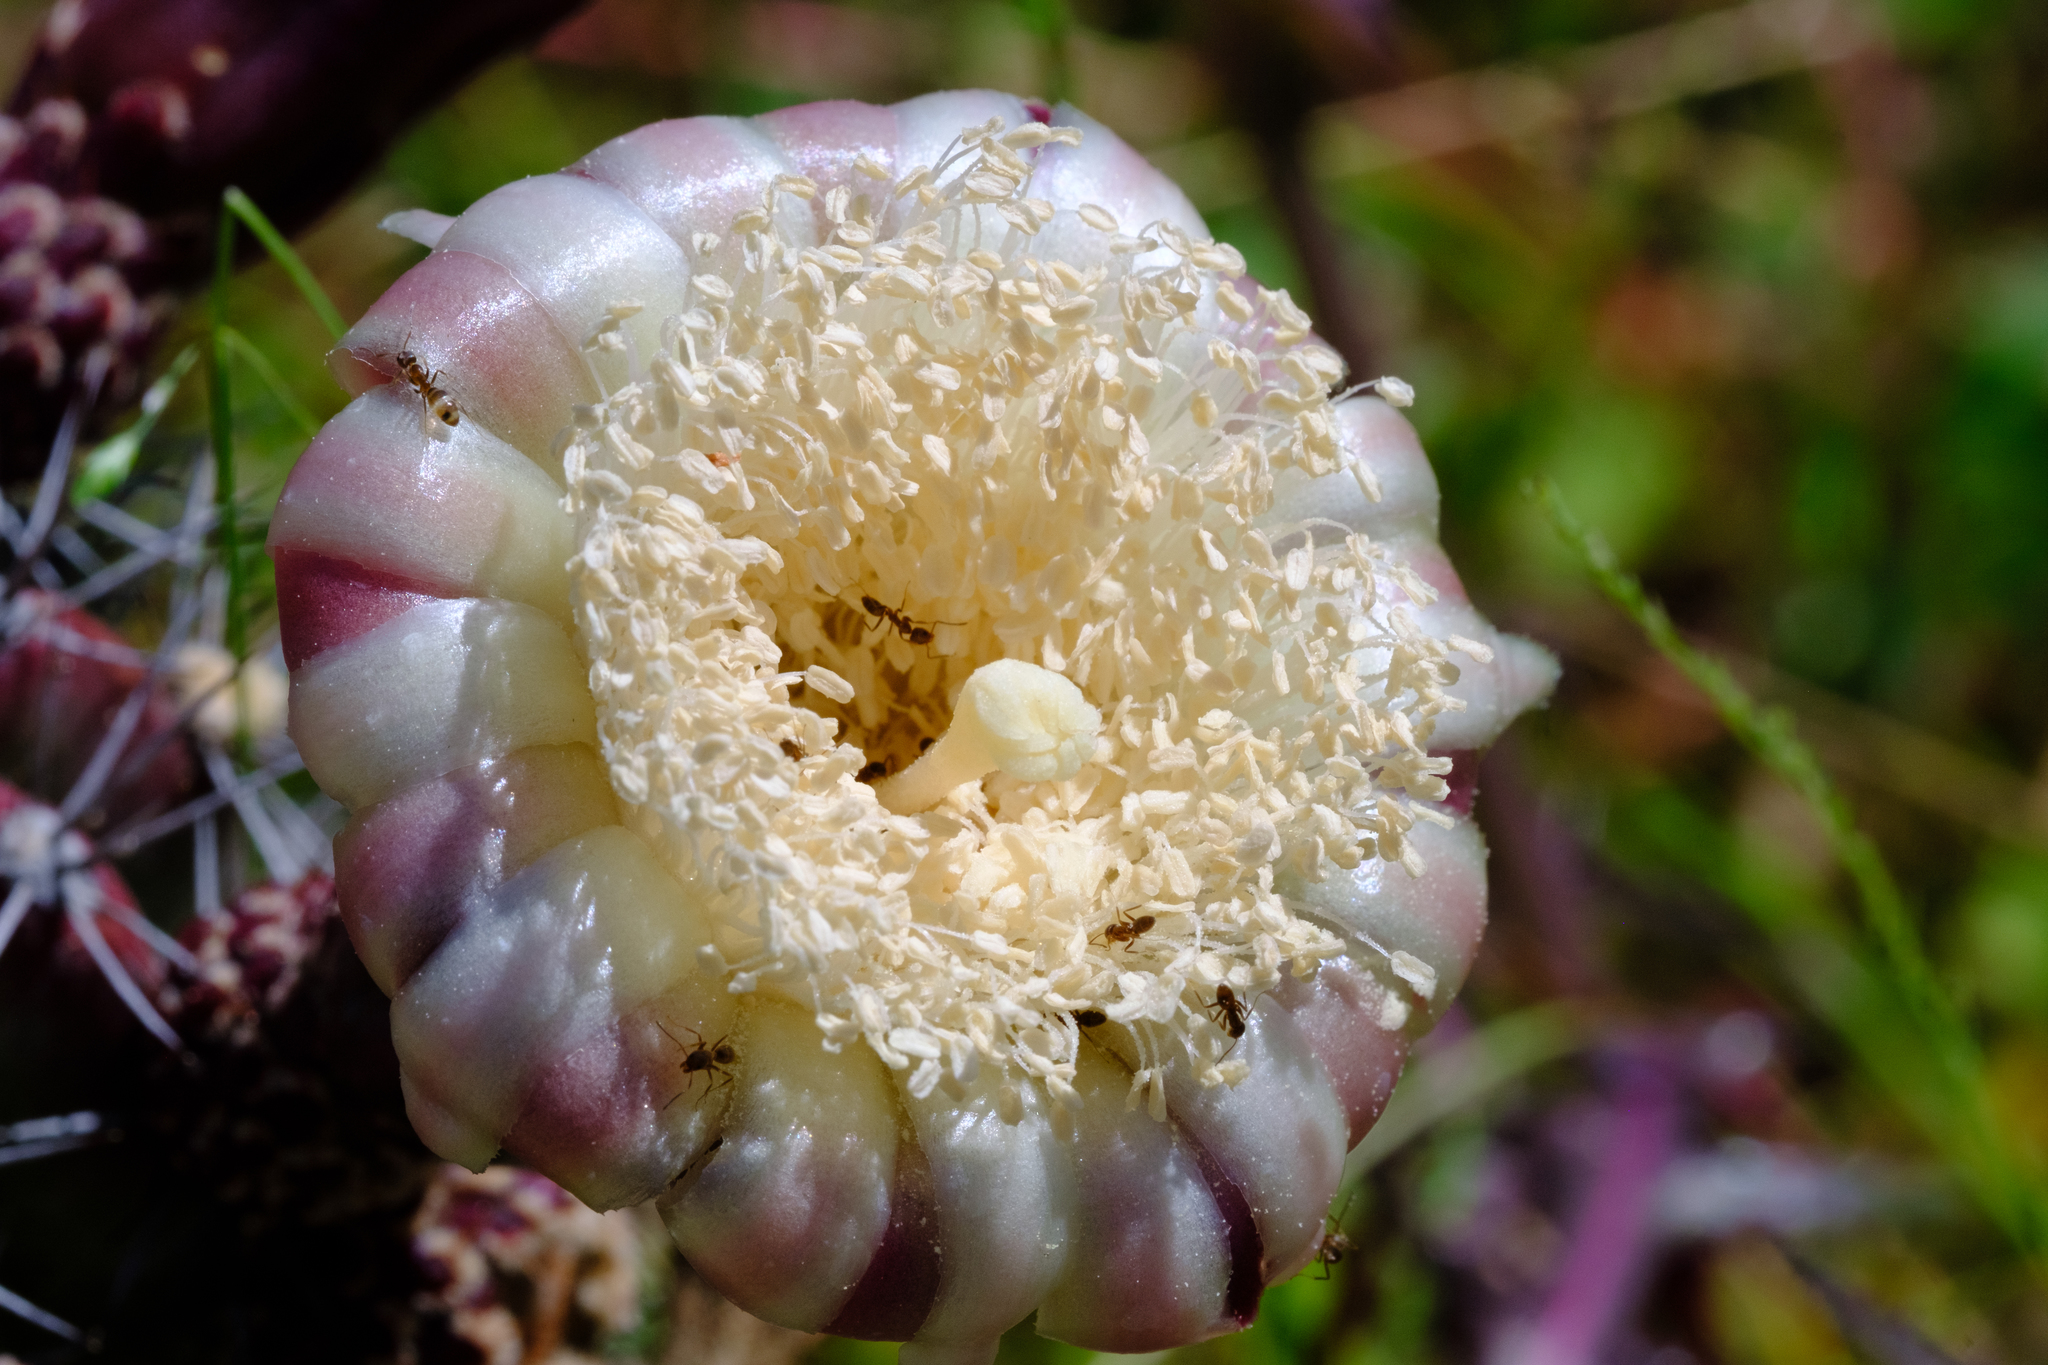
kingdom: Animalia
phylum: Arthropoda
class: Insecta
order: Hymenoptera
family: Formicidae
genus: Linepithema
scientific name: Linepithema humile
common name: Argentine ant
